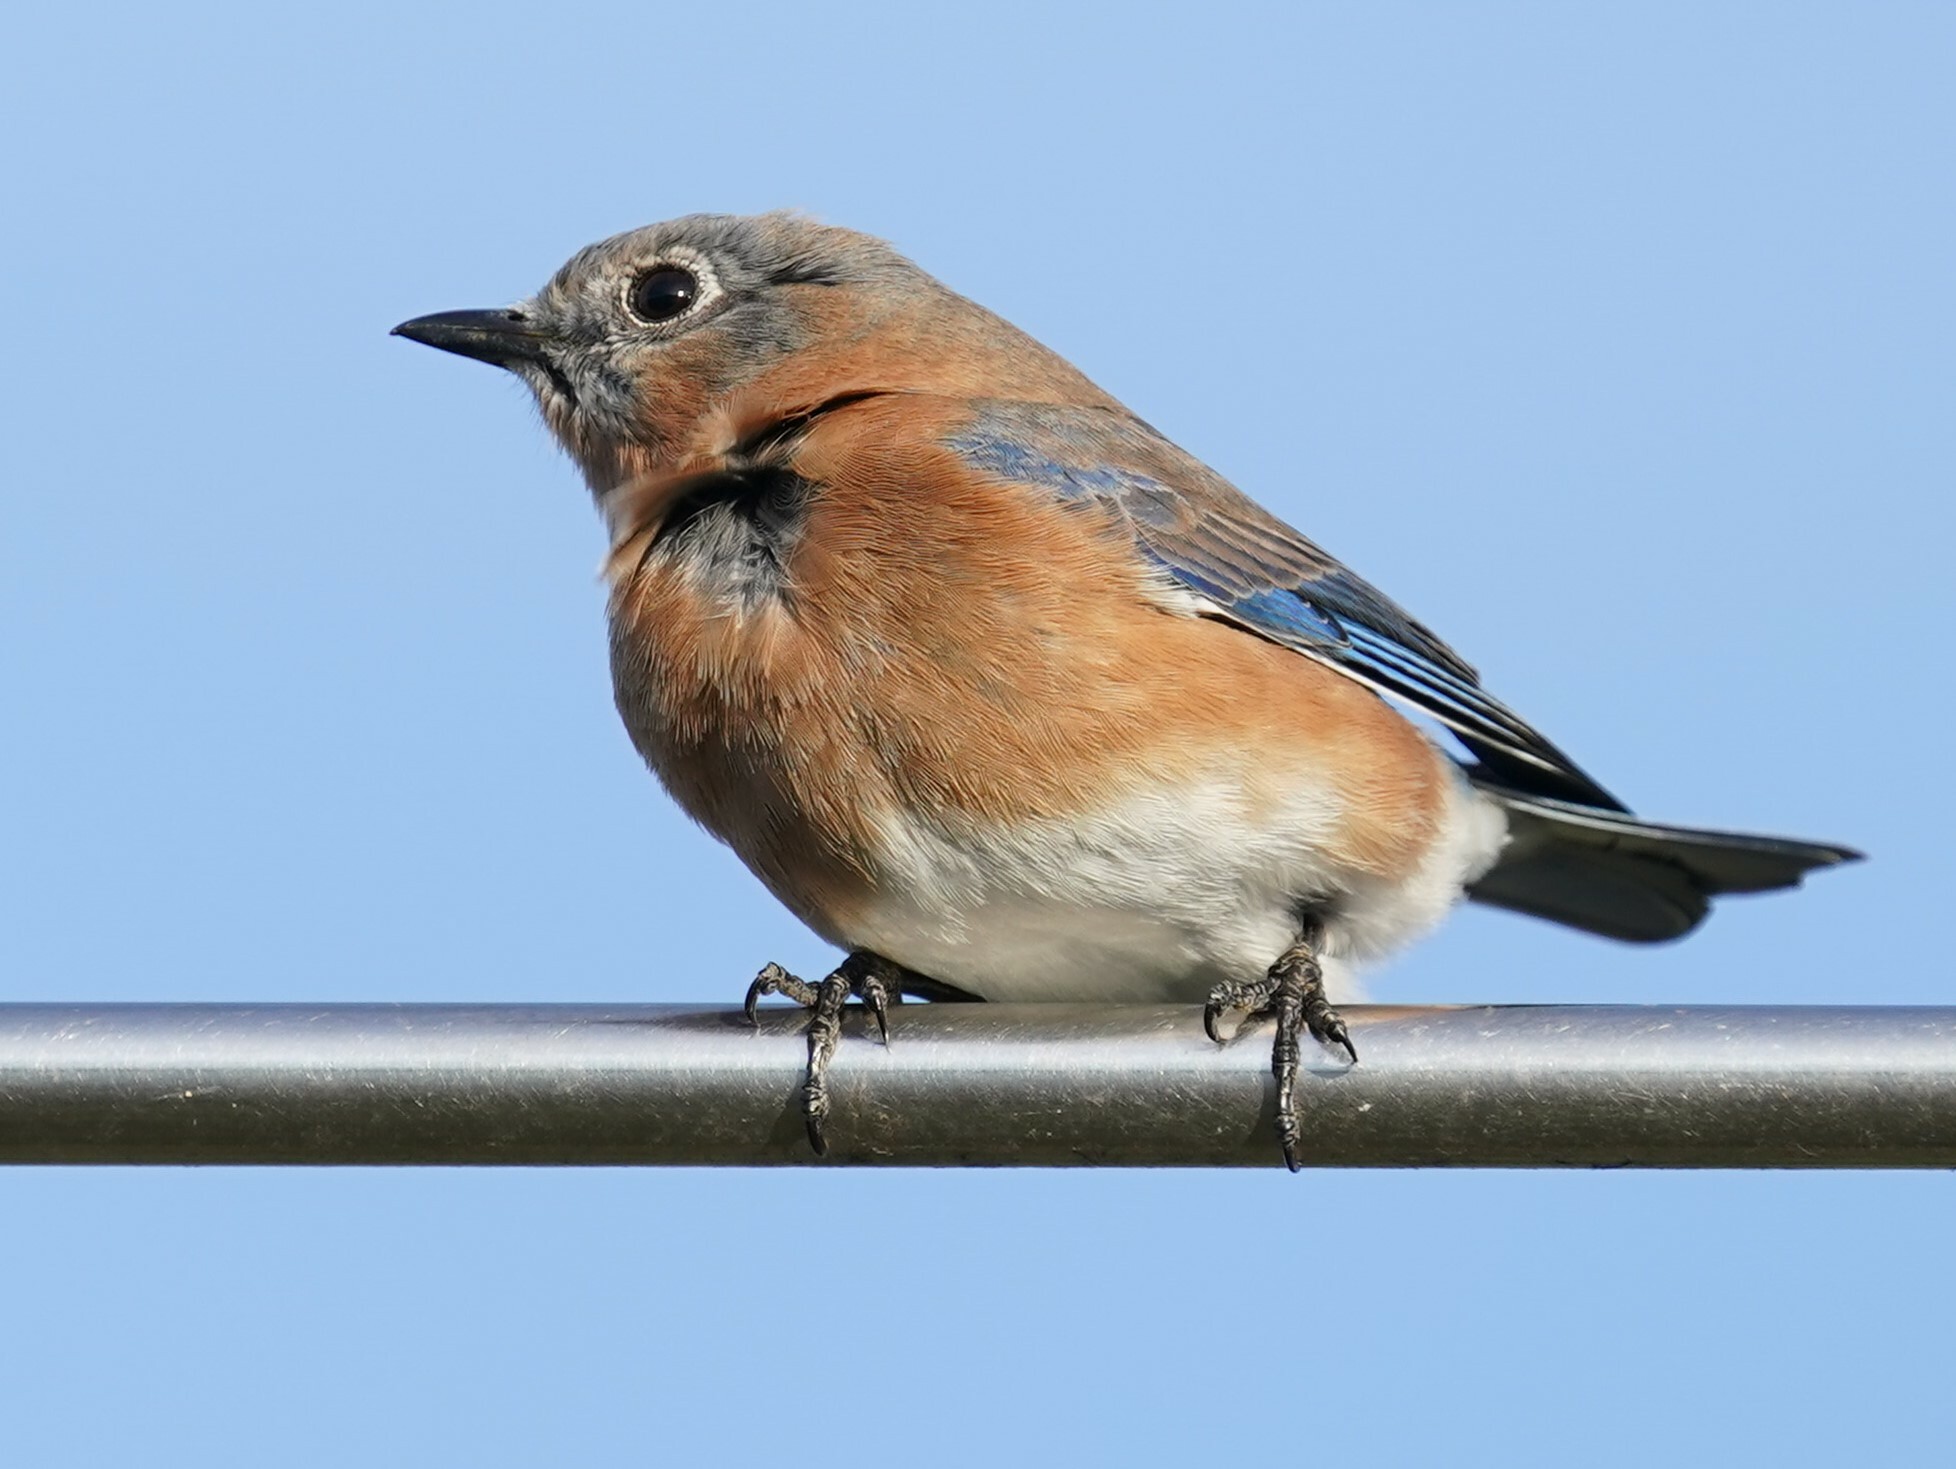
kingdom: Animalia
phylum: Chordata
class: Aves
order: Passeriformes
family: Turdidae
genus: Sialia
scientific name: Sialia sialis
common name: Eastern bluebird
